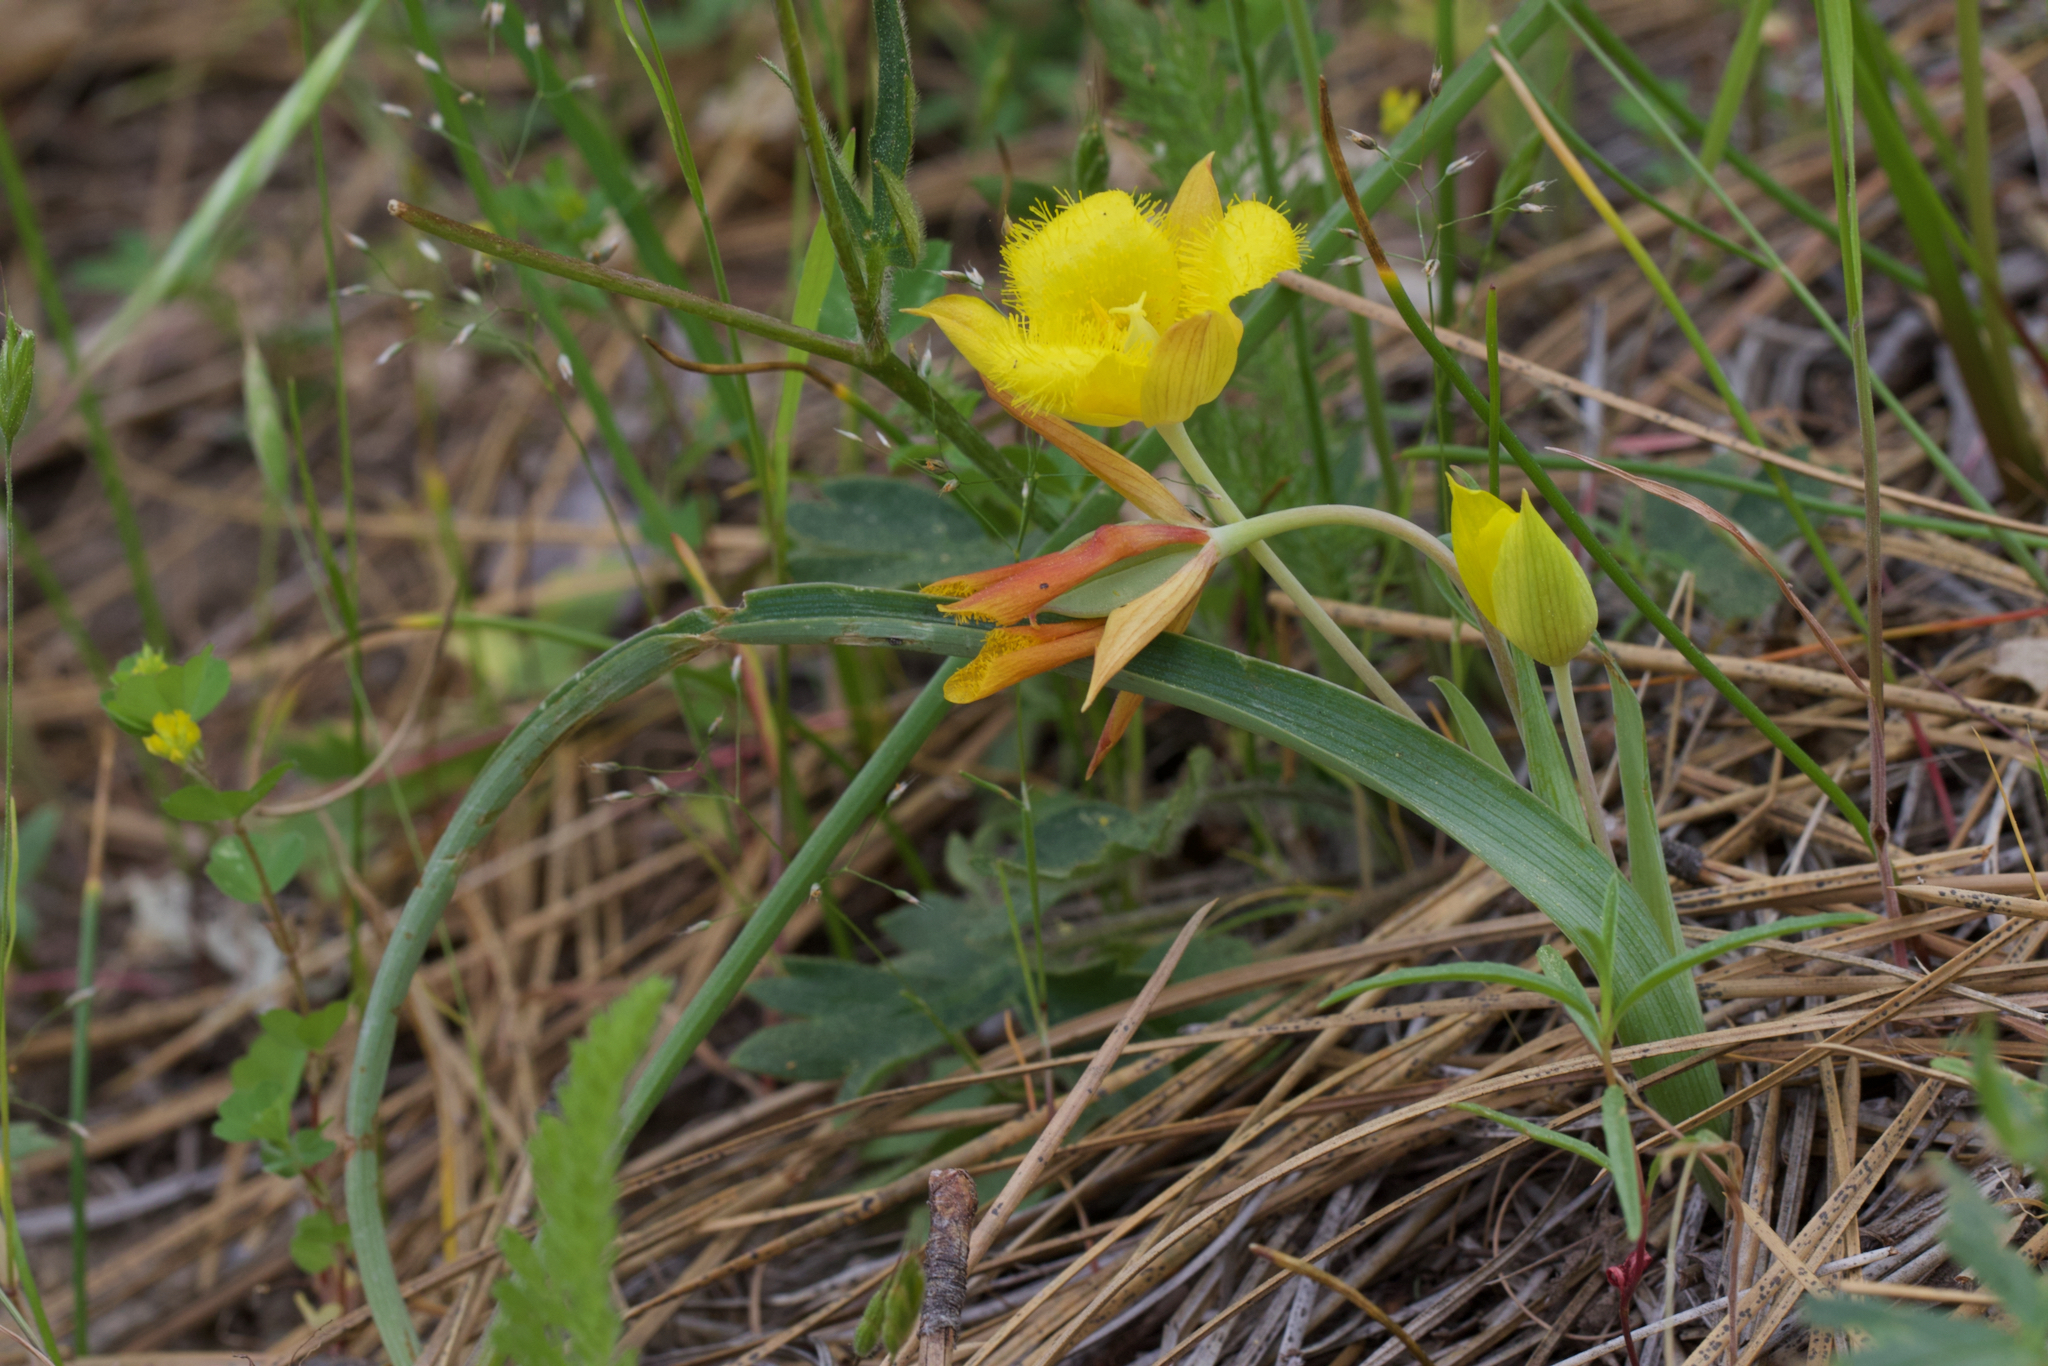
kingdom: Plantae
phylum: Tracheophyta
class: Liliopsida
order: Liliales
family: Liliaceae
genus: Calochortus
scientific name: Calochortus monophyllus
